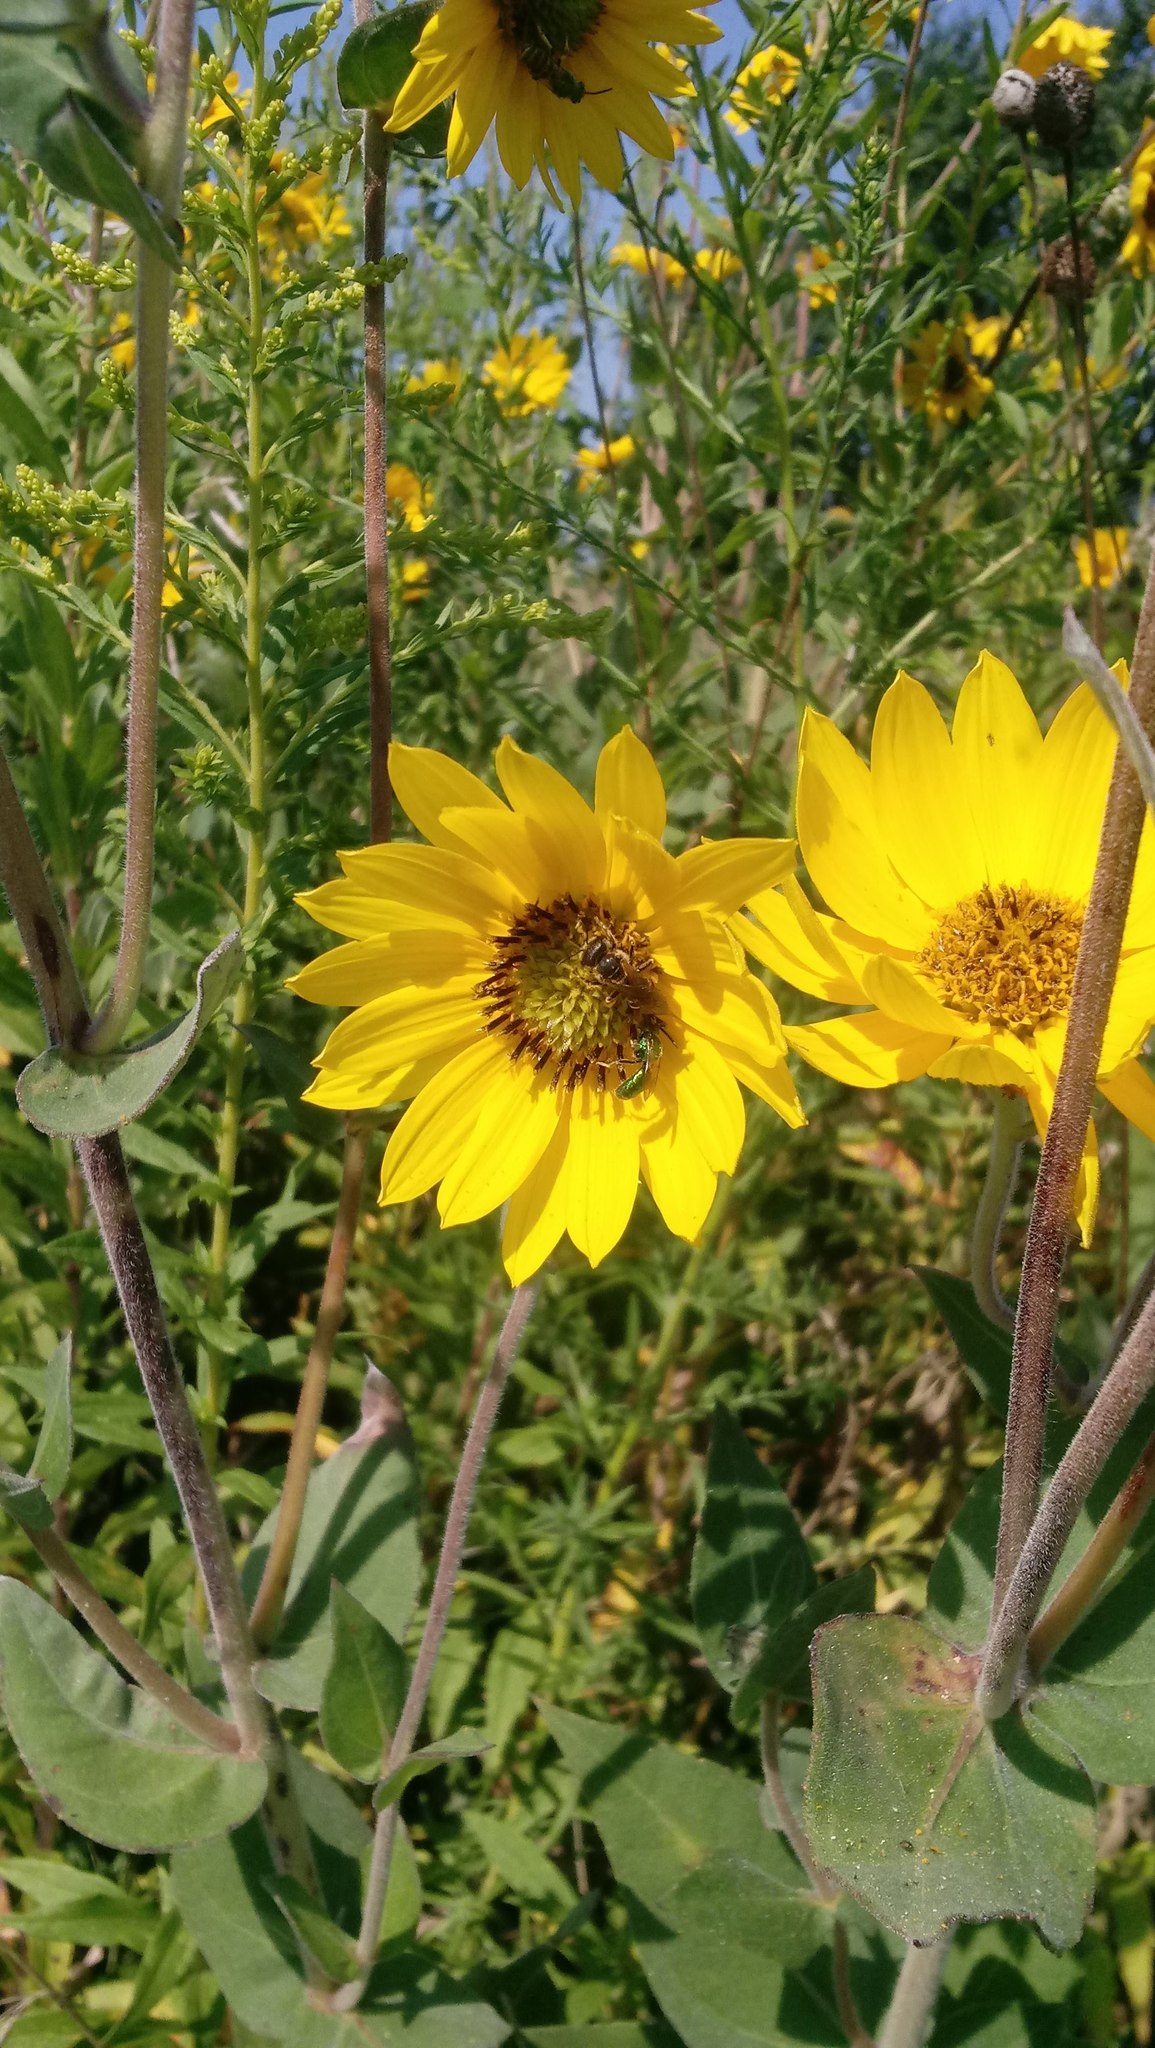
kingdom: Plantae
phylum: Tracheophyta
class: Magnoliopsida
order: Asterales
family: Asteraceae
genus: Helianthus
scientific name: Helianthus mollis
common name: Ashy sunflower
